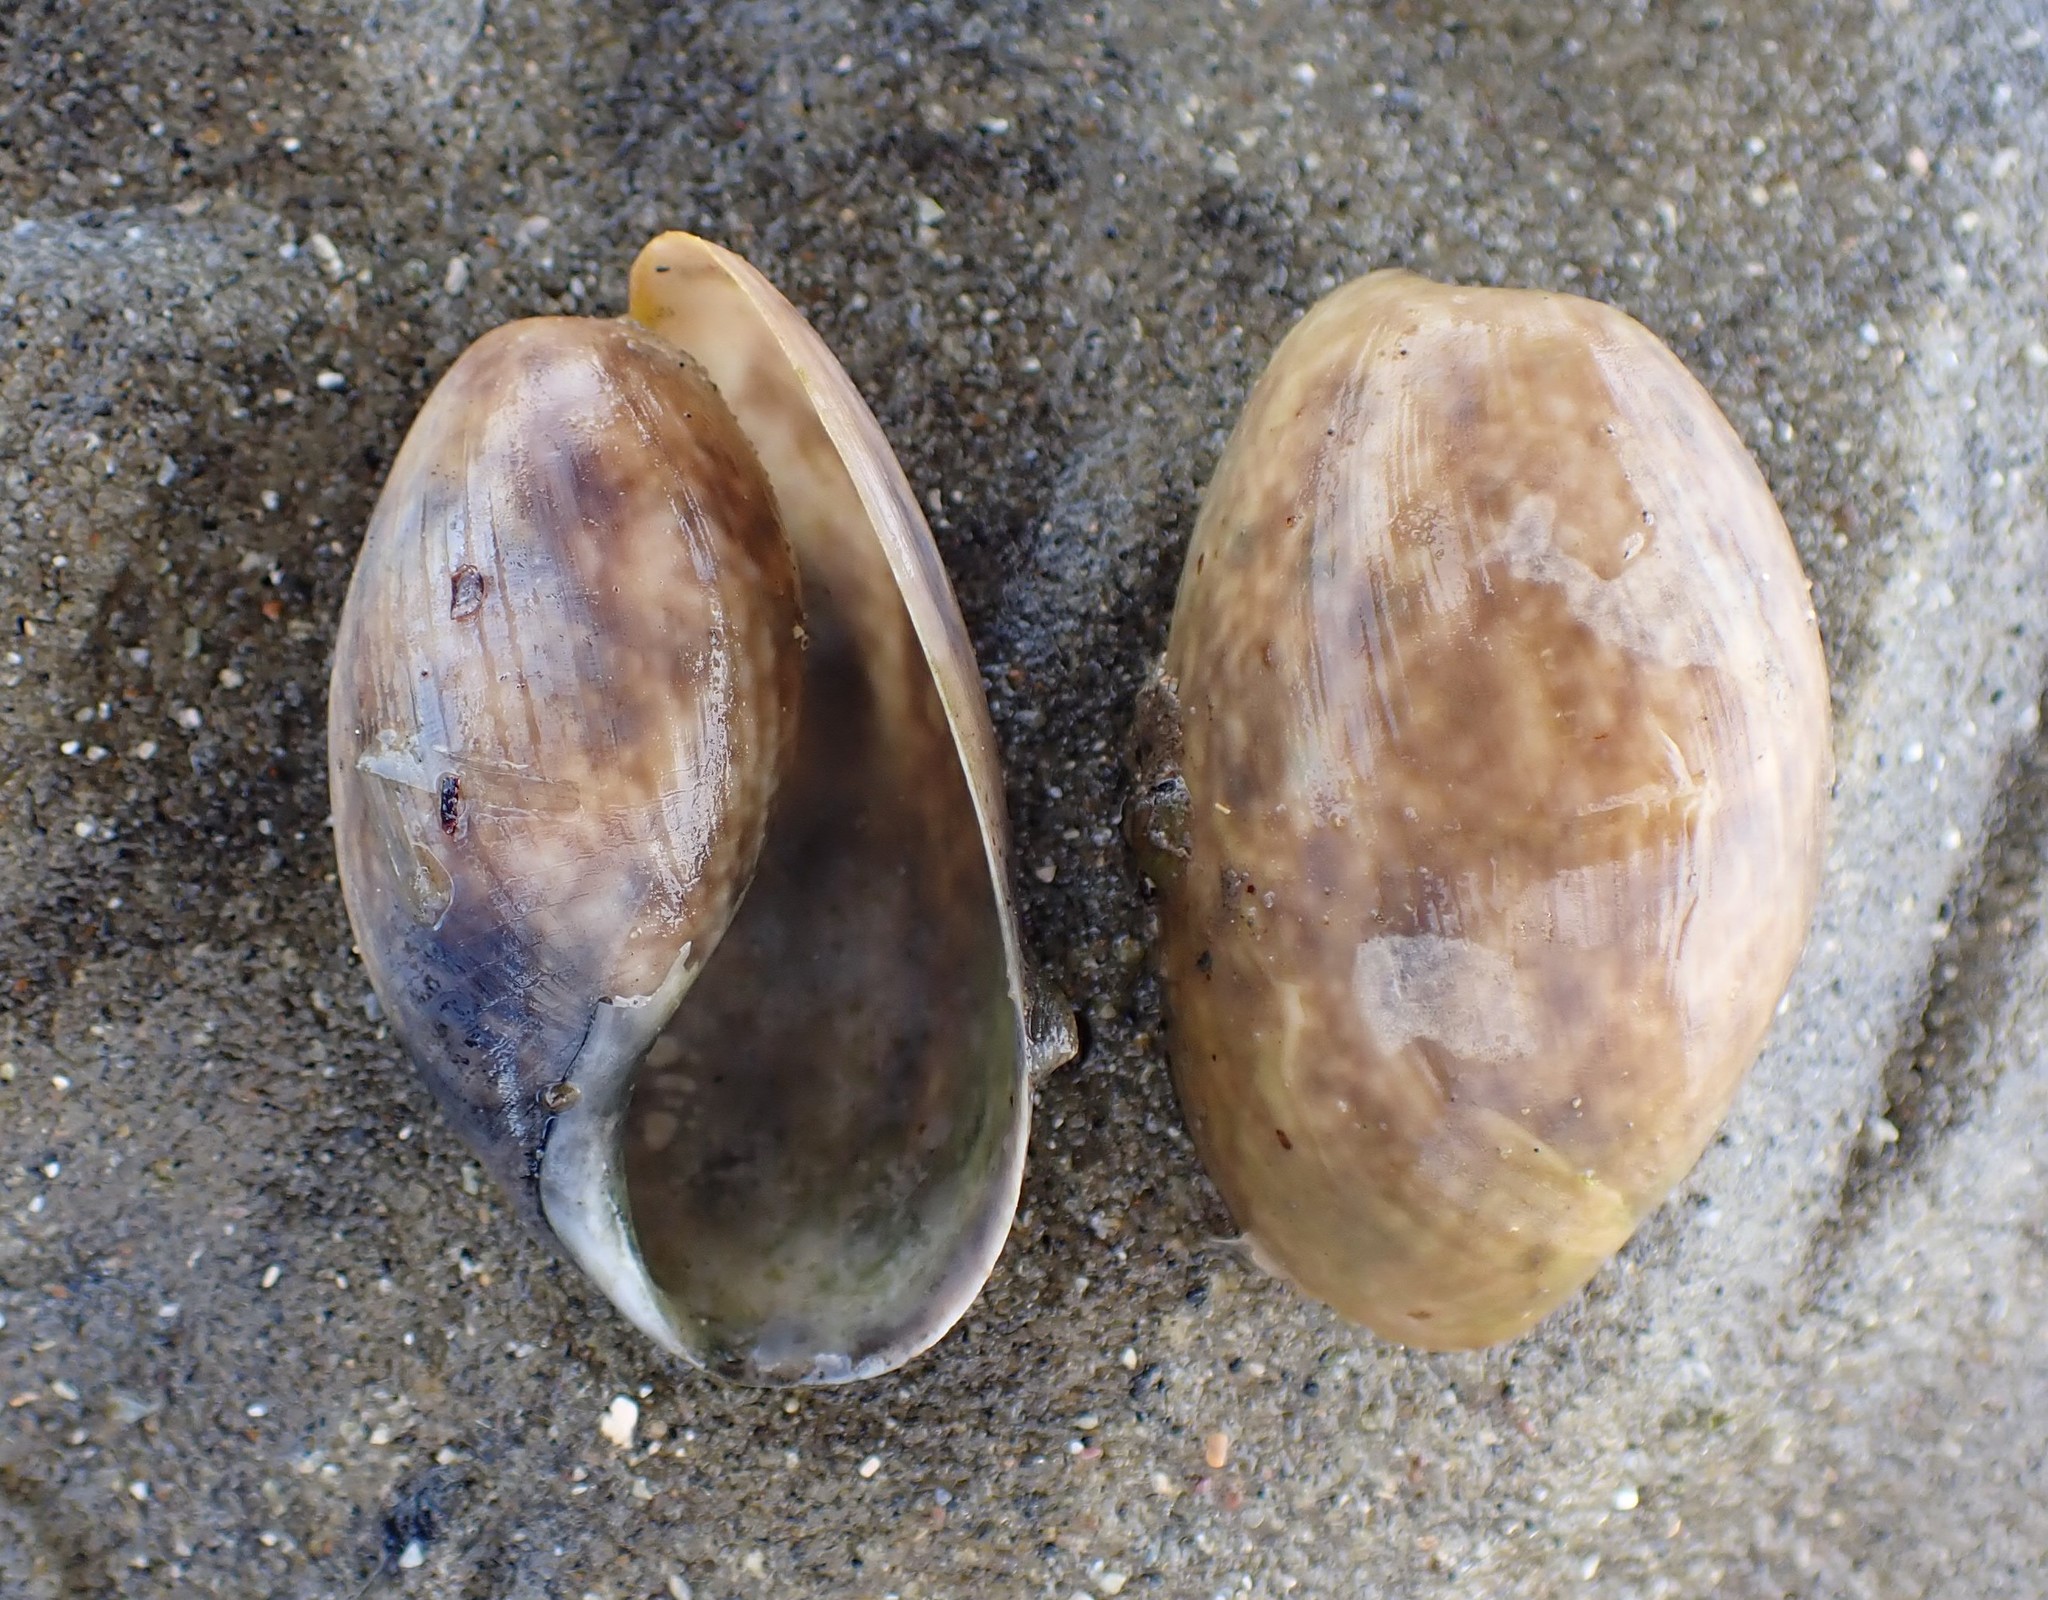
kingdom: Animalia
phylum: Mollusca
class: Gastropoda
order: Cephalaspidea
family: Bullidae
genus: Bulla
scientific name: Bulla quoyii
